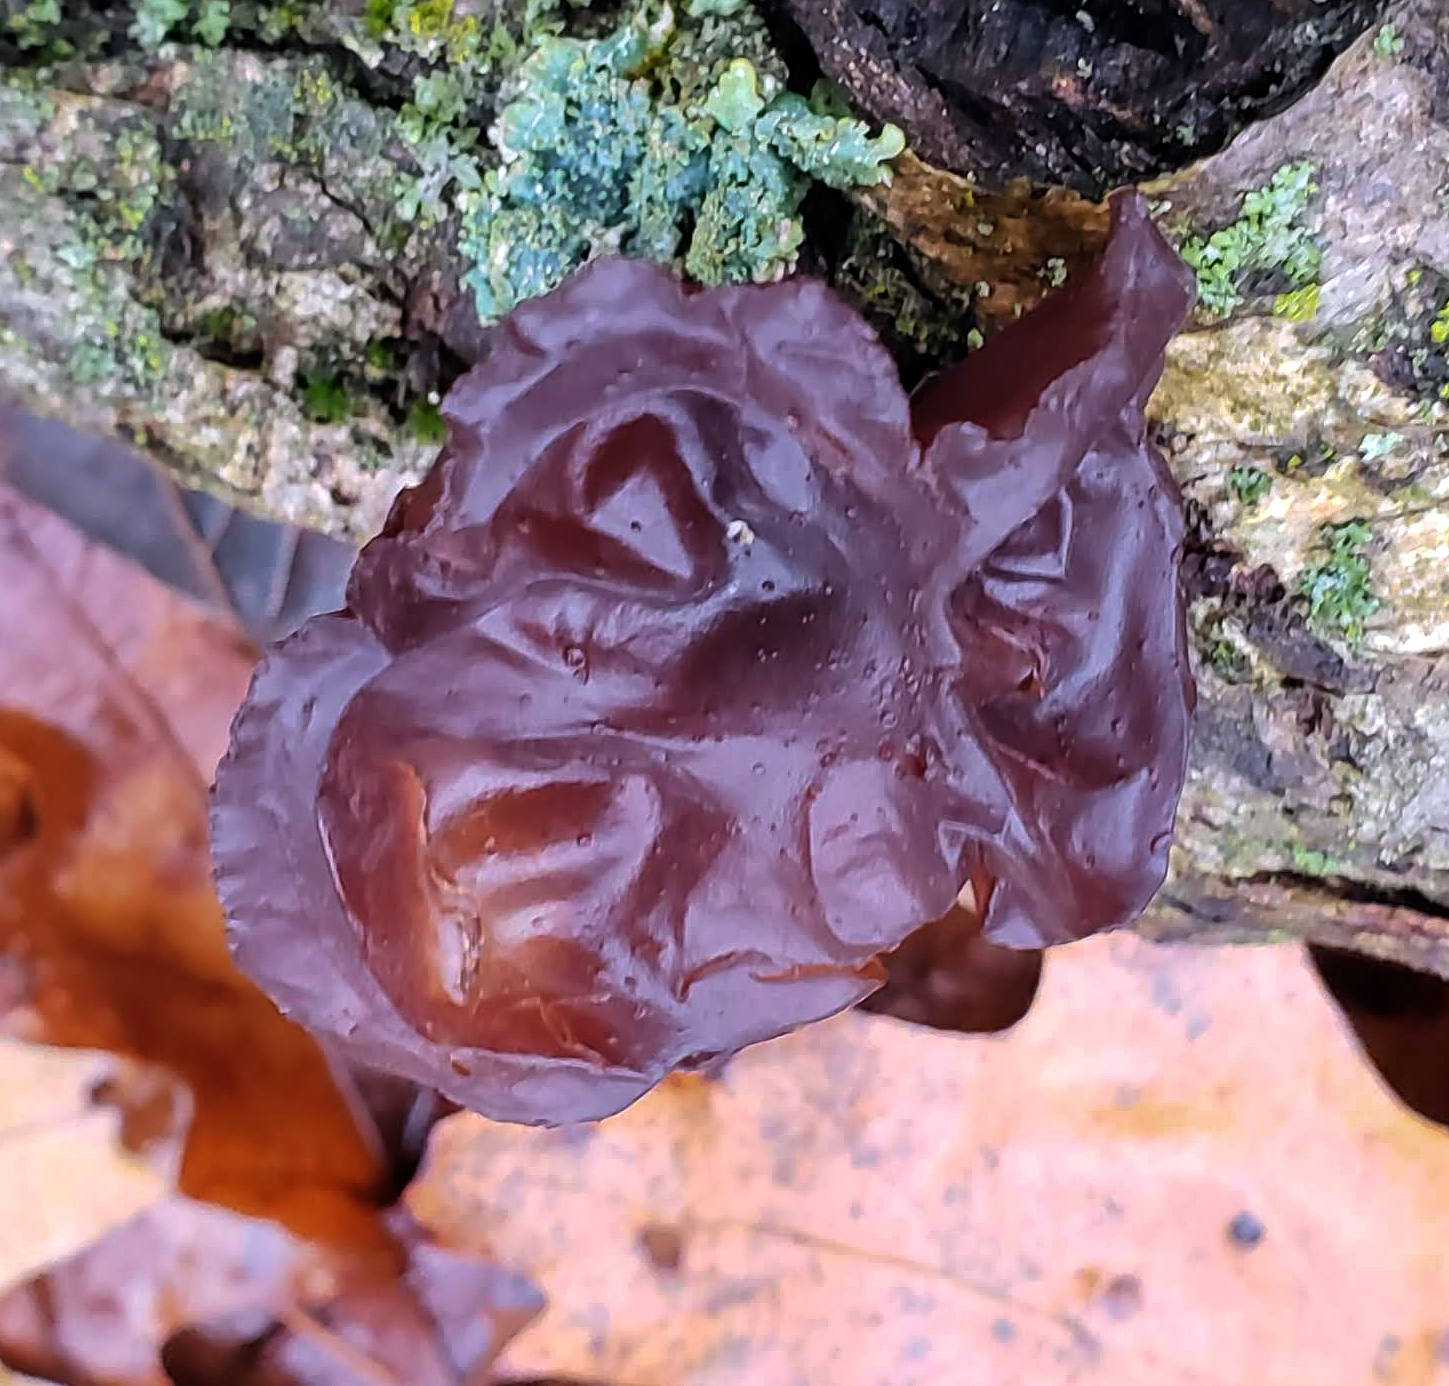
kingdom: Fungi
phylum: Basidiomycota
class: Agaricomycetes
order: Auriculariales
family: Auriculariaceae
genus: Exidia
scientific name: Exidia
